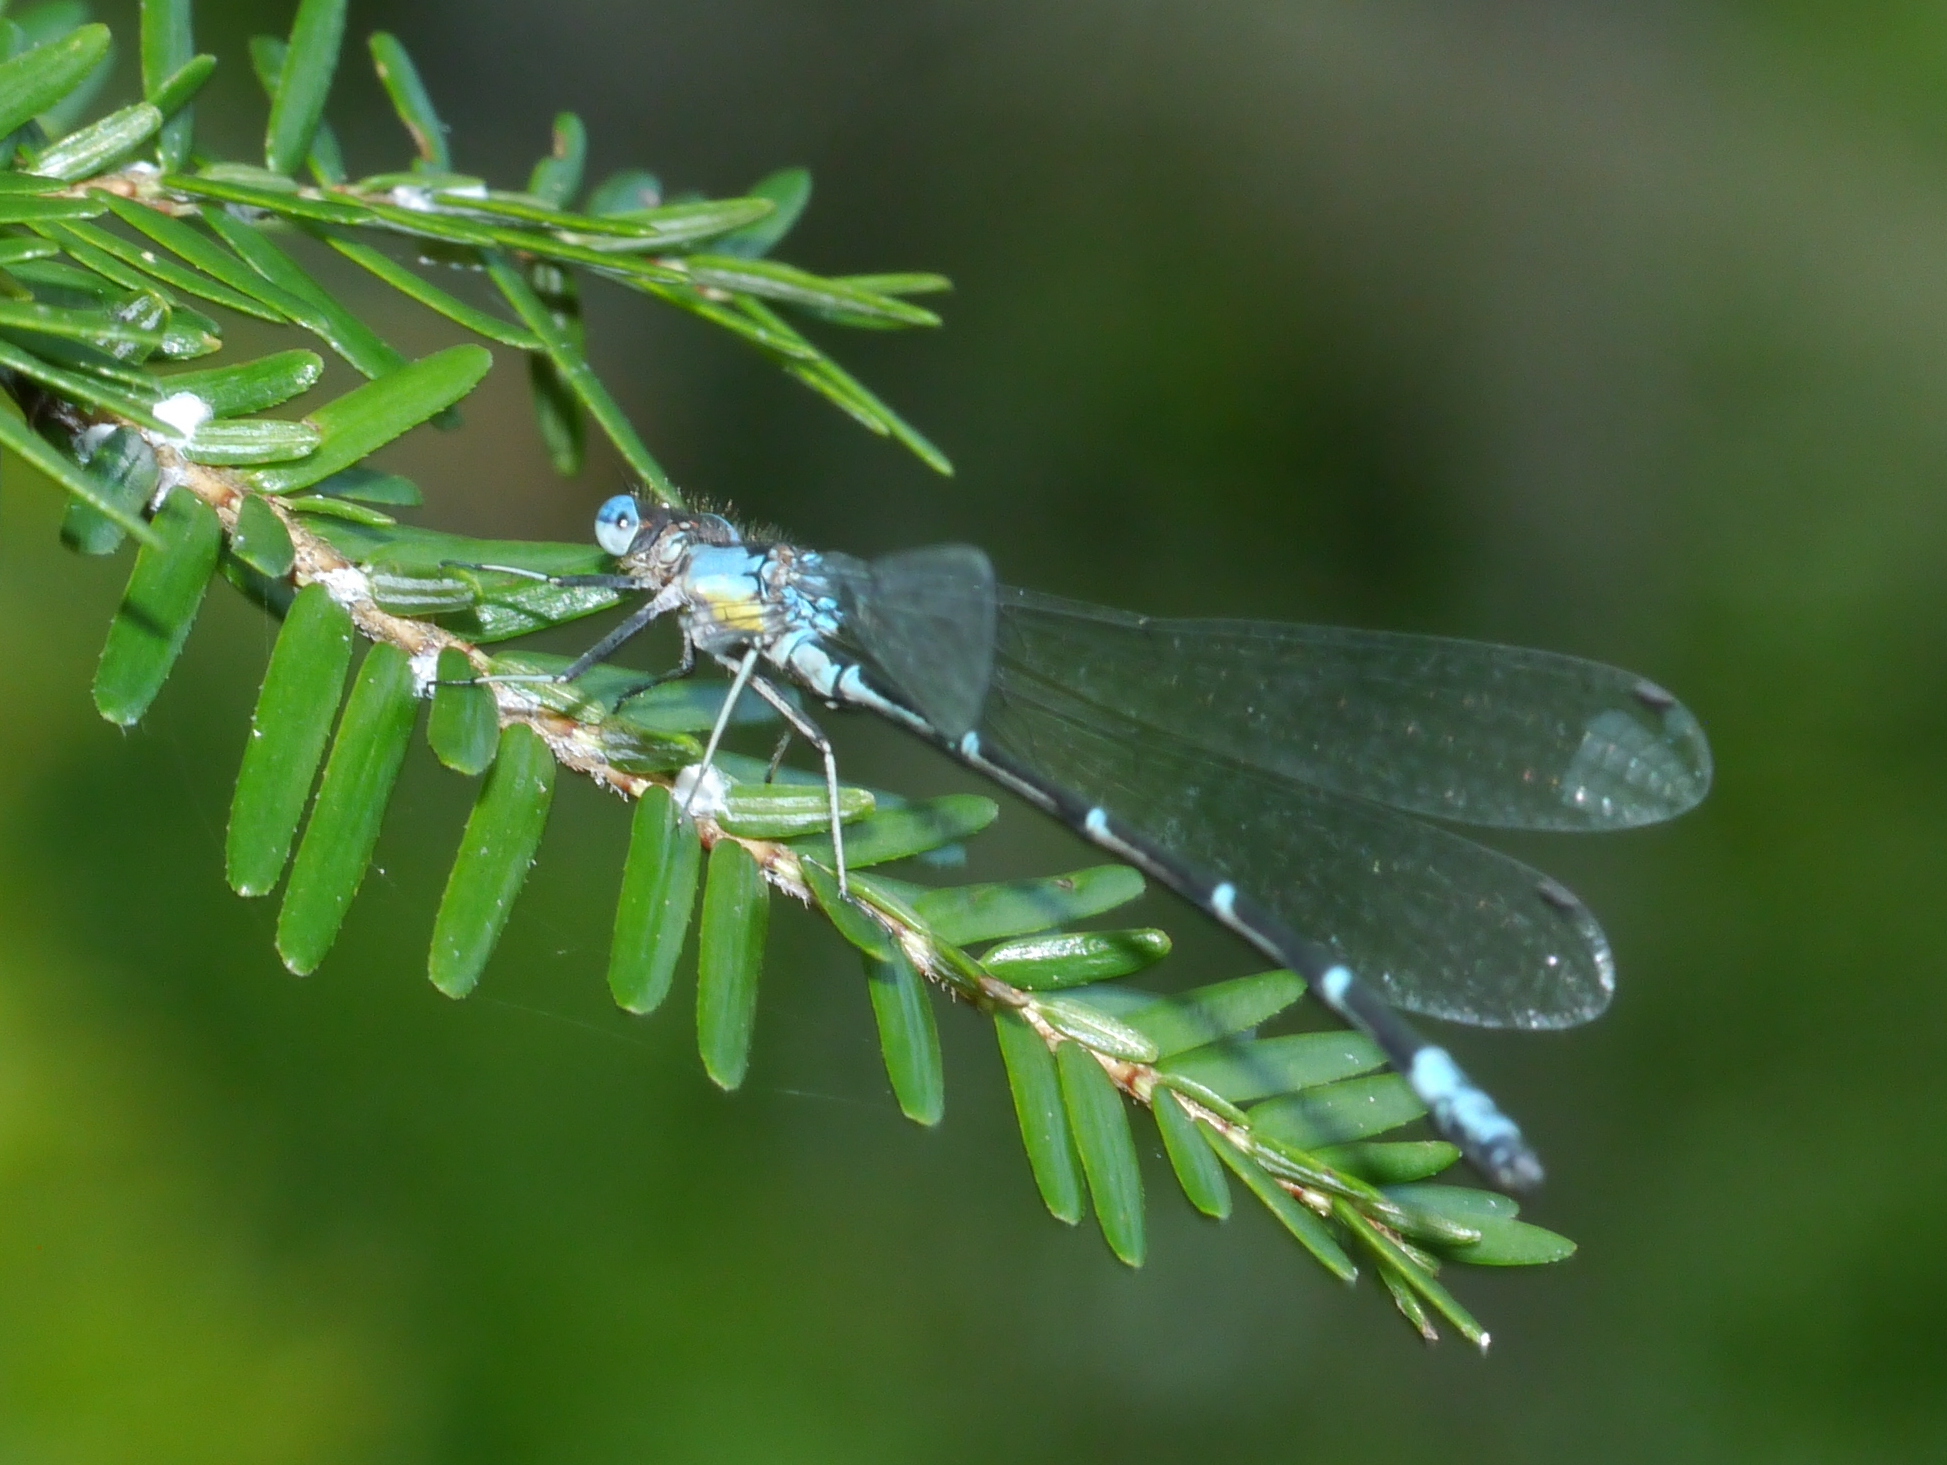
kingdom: Animalia
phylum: Arthropoda
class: Insecta
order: Odonata
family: Coenagrionidae
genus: Chromagrion
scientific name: Chromagrion conditum
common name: Aurora damsel
